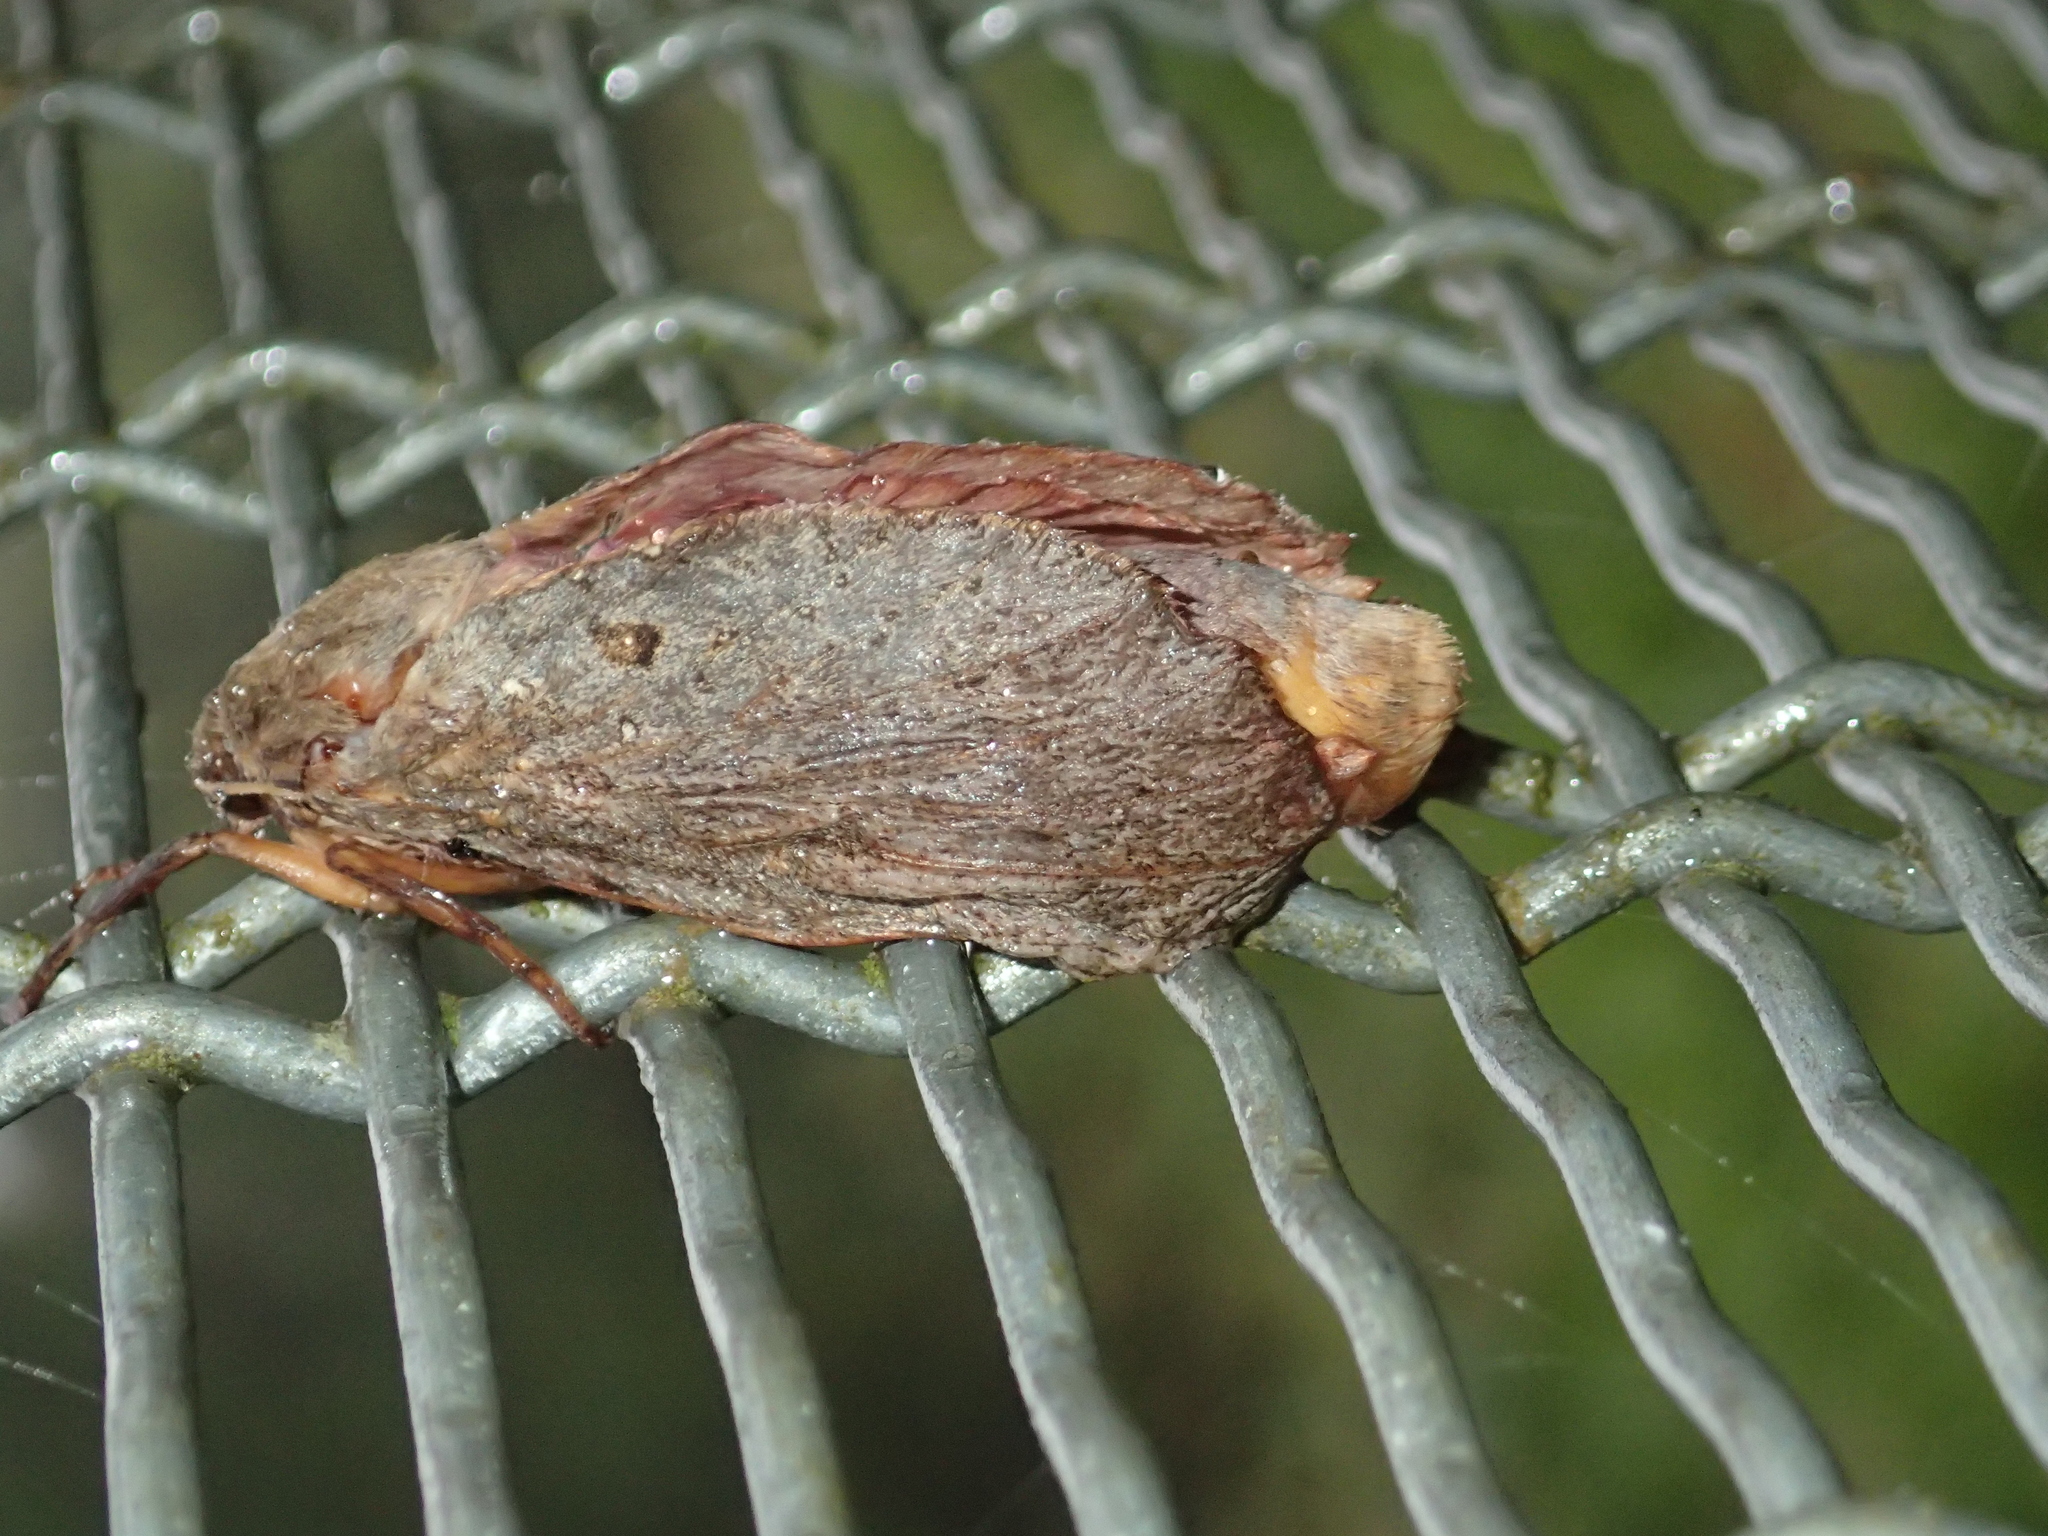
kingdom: Animalia
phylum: Arthropoda
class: Insecta
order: Lepidoptera
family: Hepialidae
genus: Dumbletonius
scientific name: Dumbletonius unimaculata
